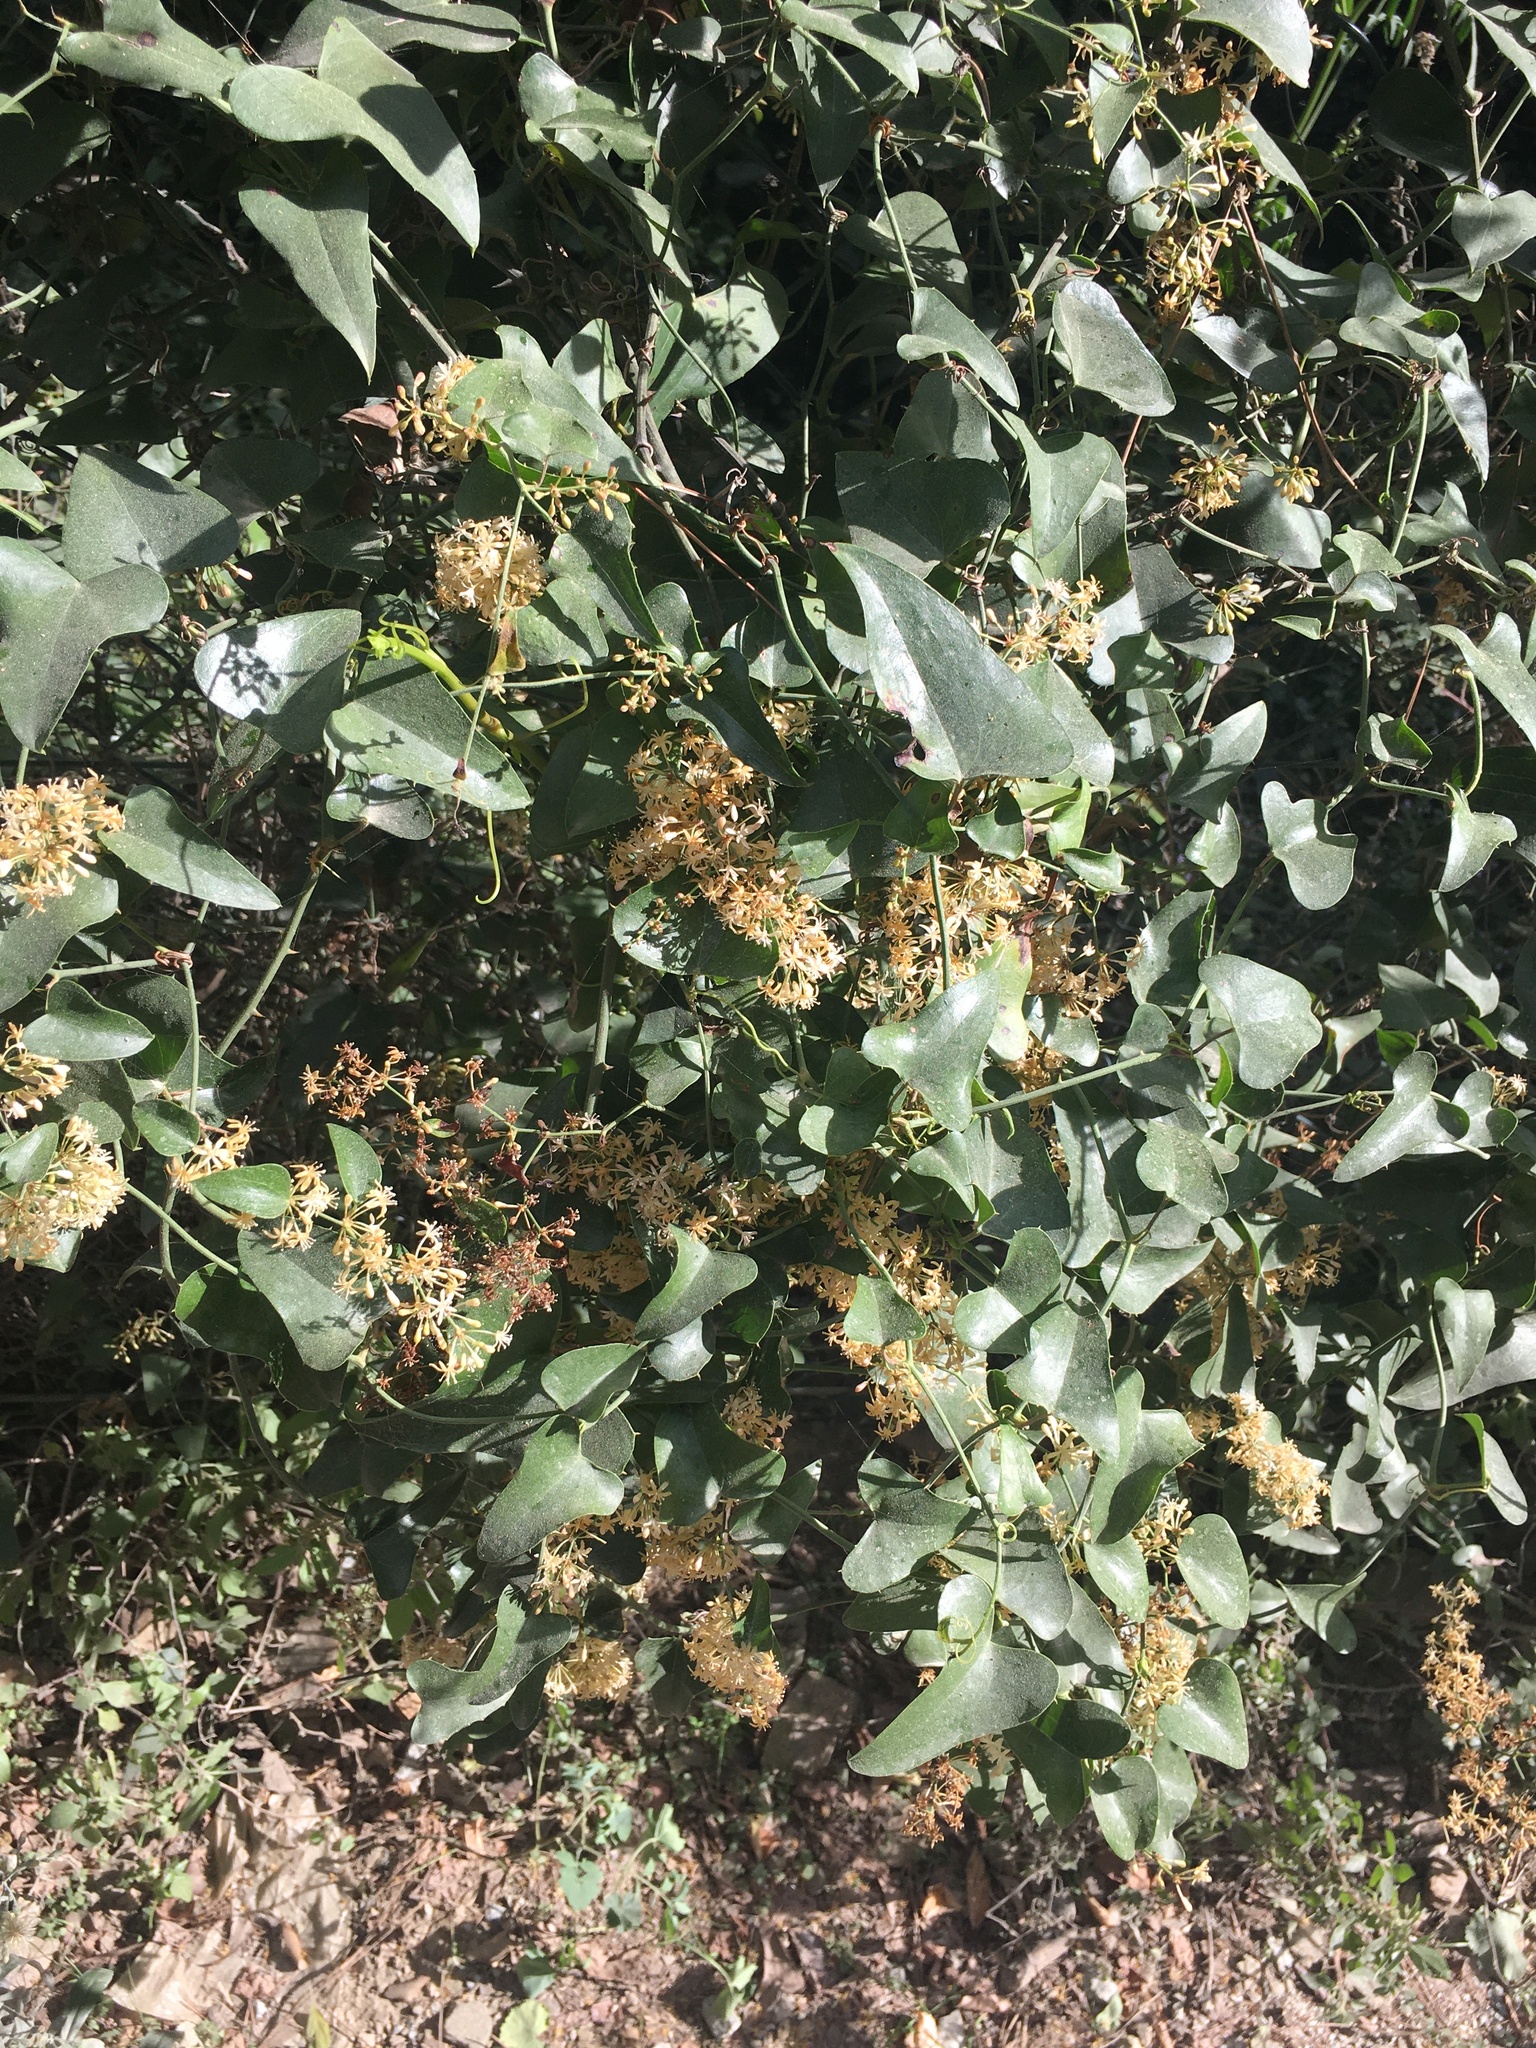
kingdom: Plantae
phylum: Tracheophyta
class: Liliopsida
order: Liliales
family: Smilacaceae
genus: Smilax
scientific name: Smilax aspera
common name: Common smilax
